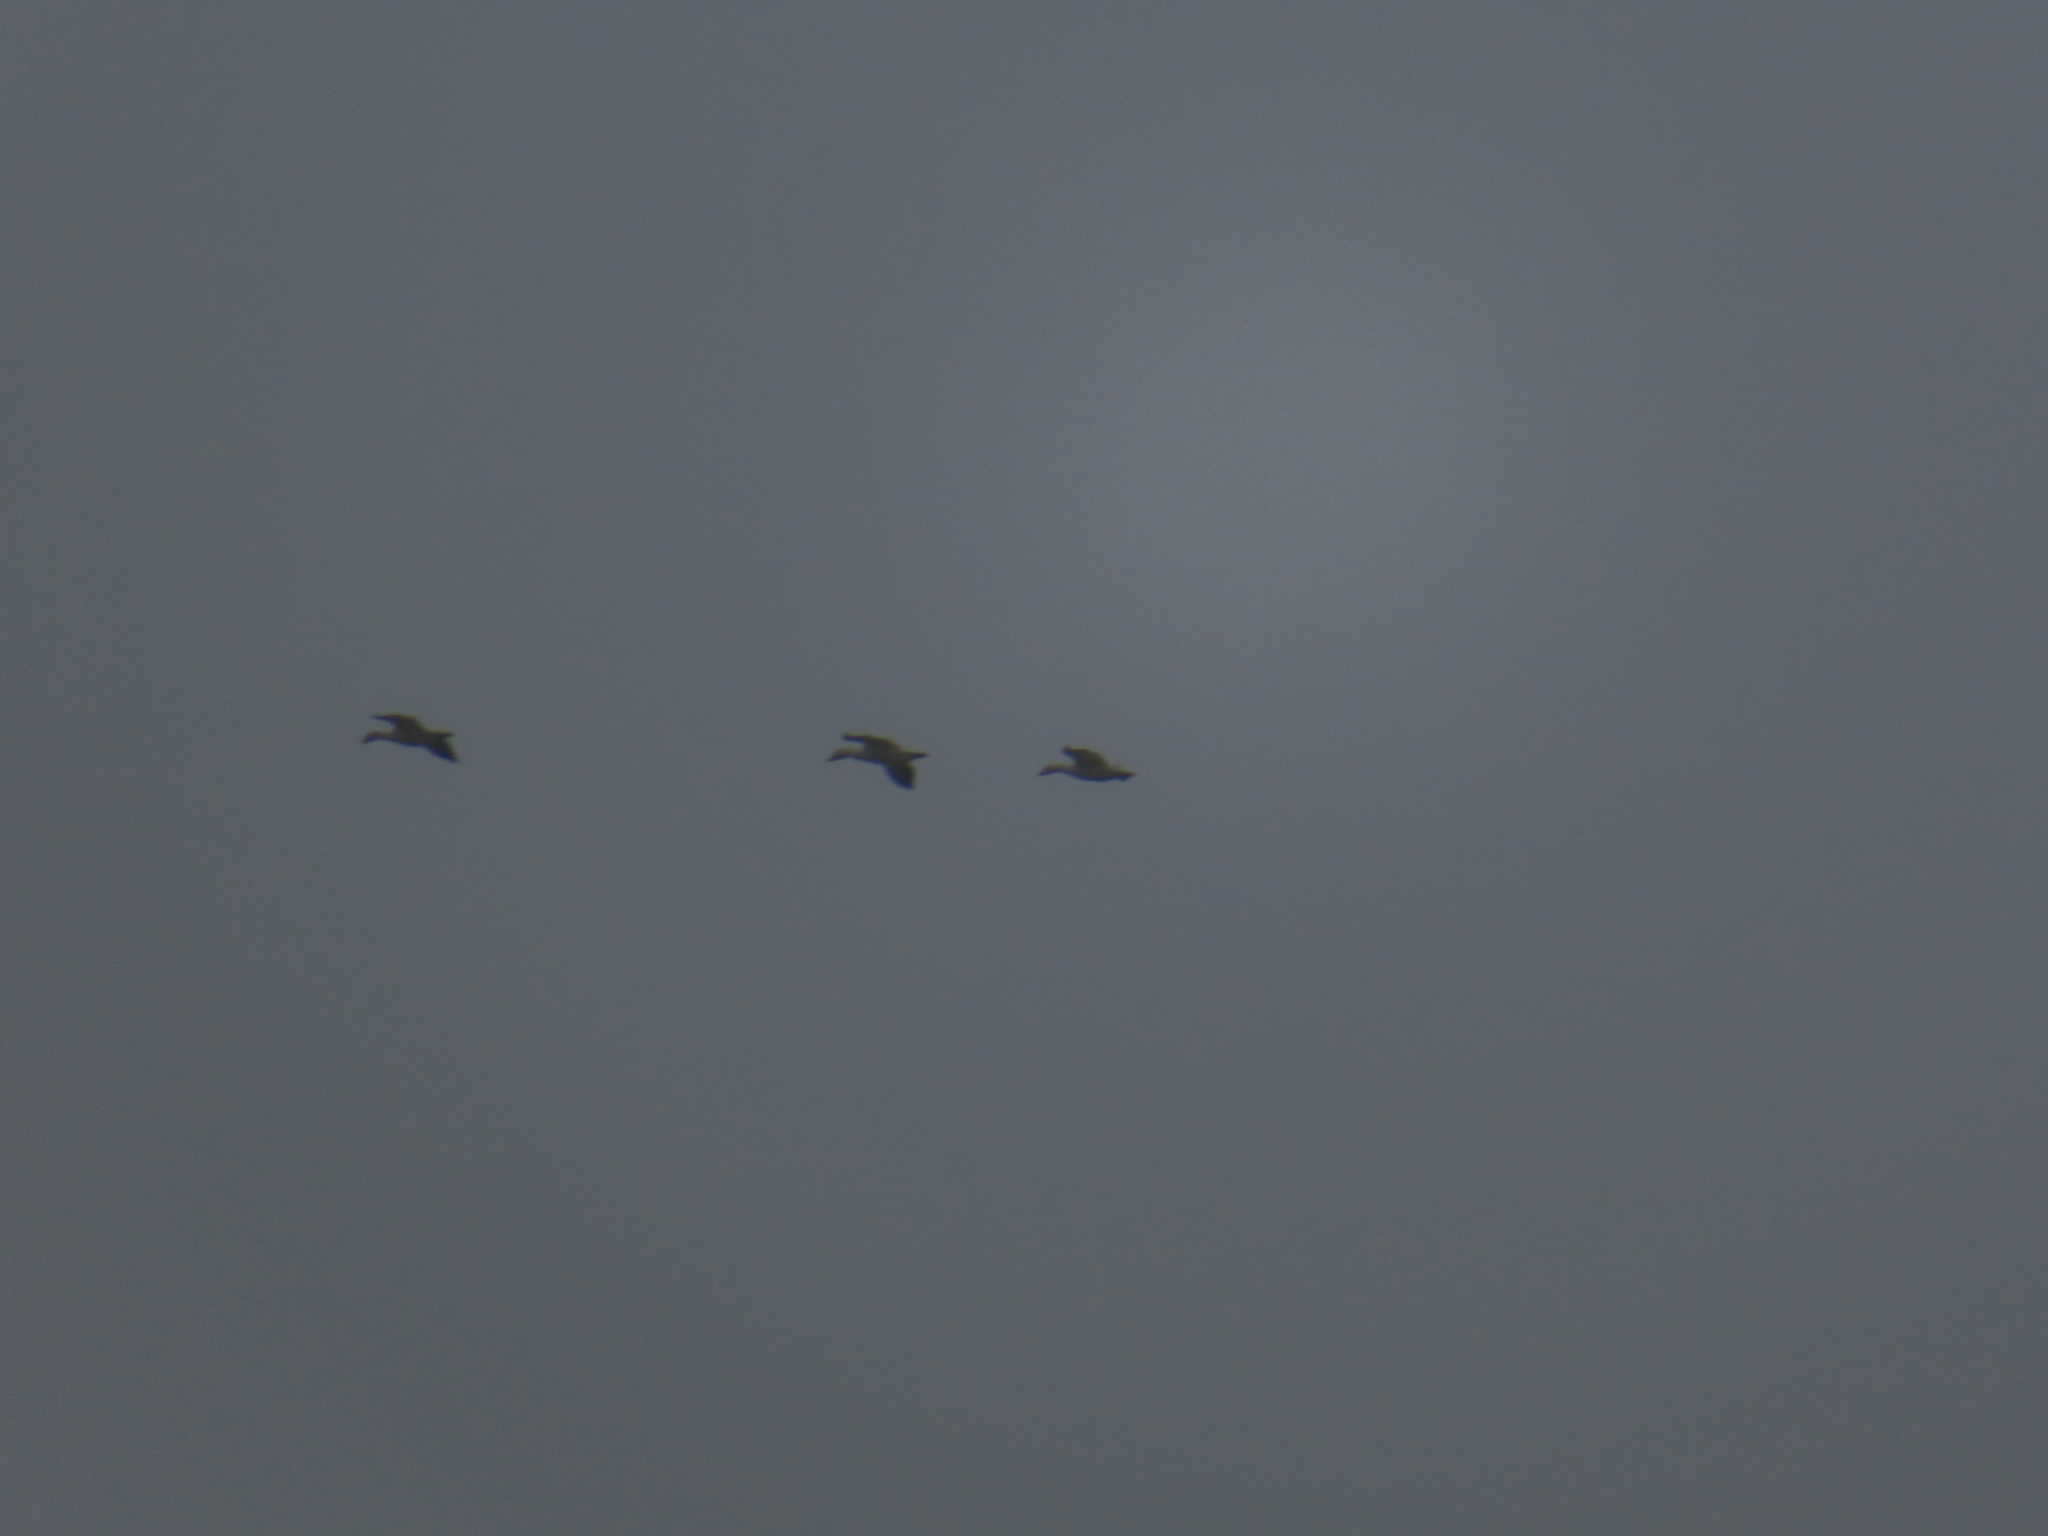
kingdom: Animalia
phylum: Chordata
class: Aves
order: Anseriformes
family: Anatidae
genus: Anser
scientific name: Anser caerulescens
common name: Snow goose
